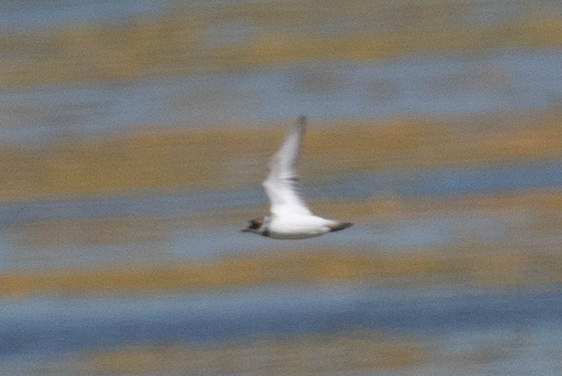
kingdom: Animalia
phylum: Chordata
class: Aves
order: Charadriiformes
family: Charadriidae
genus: Charadrius
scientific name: Charadrius semipalmatus
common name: Semipalmated plover
